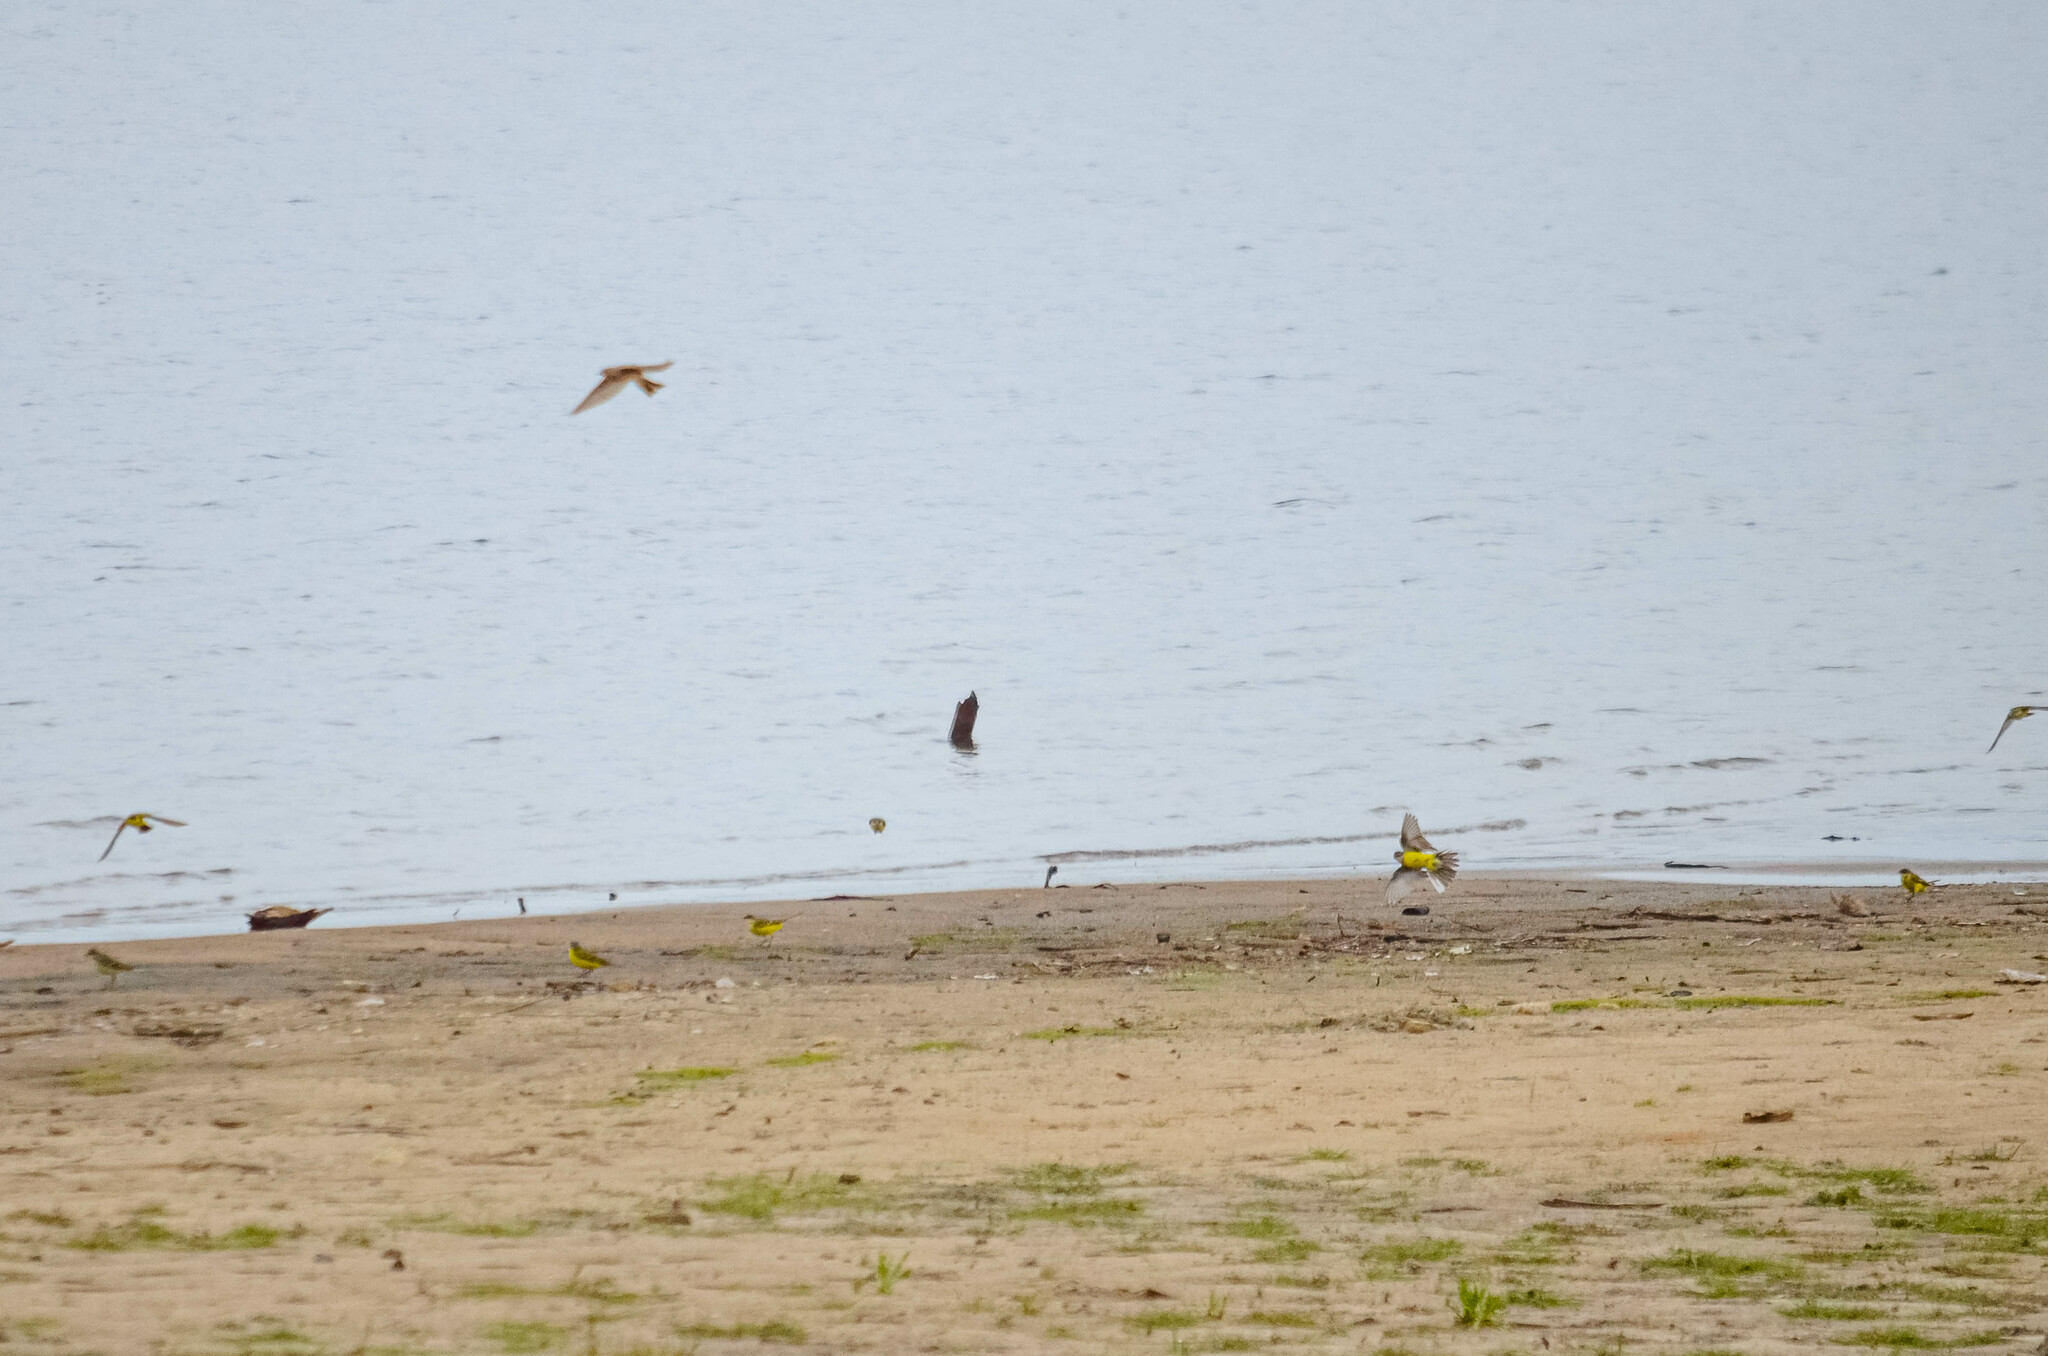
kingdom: Animalia
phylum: Chordata
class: Aves
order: Passeriformes
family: Motacillidae
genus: Motacilla
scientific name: Motacilla flava
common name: Western yellow wagtail
